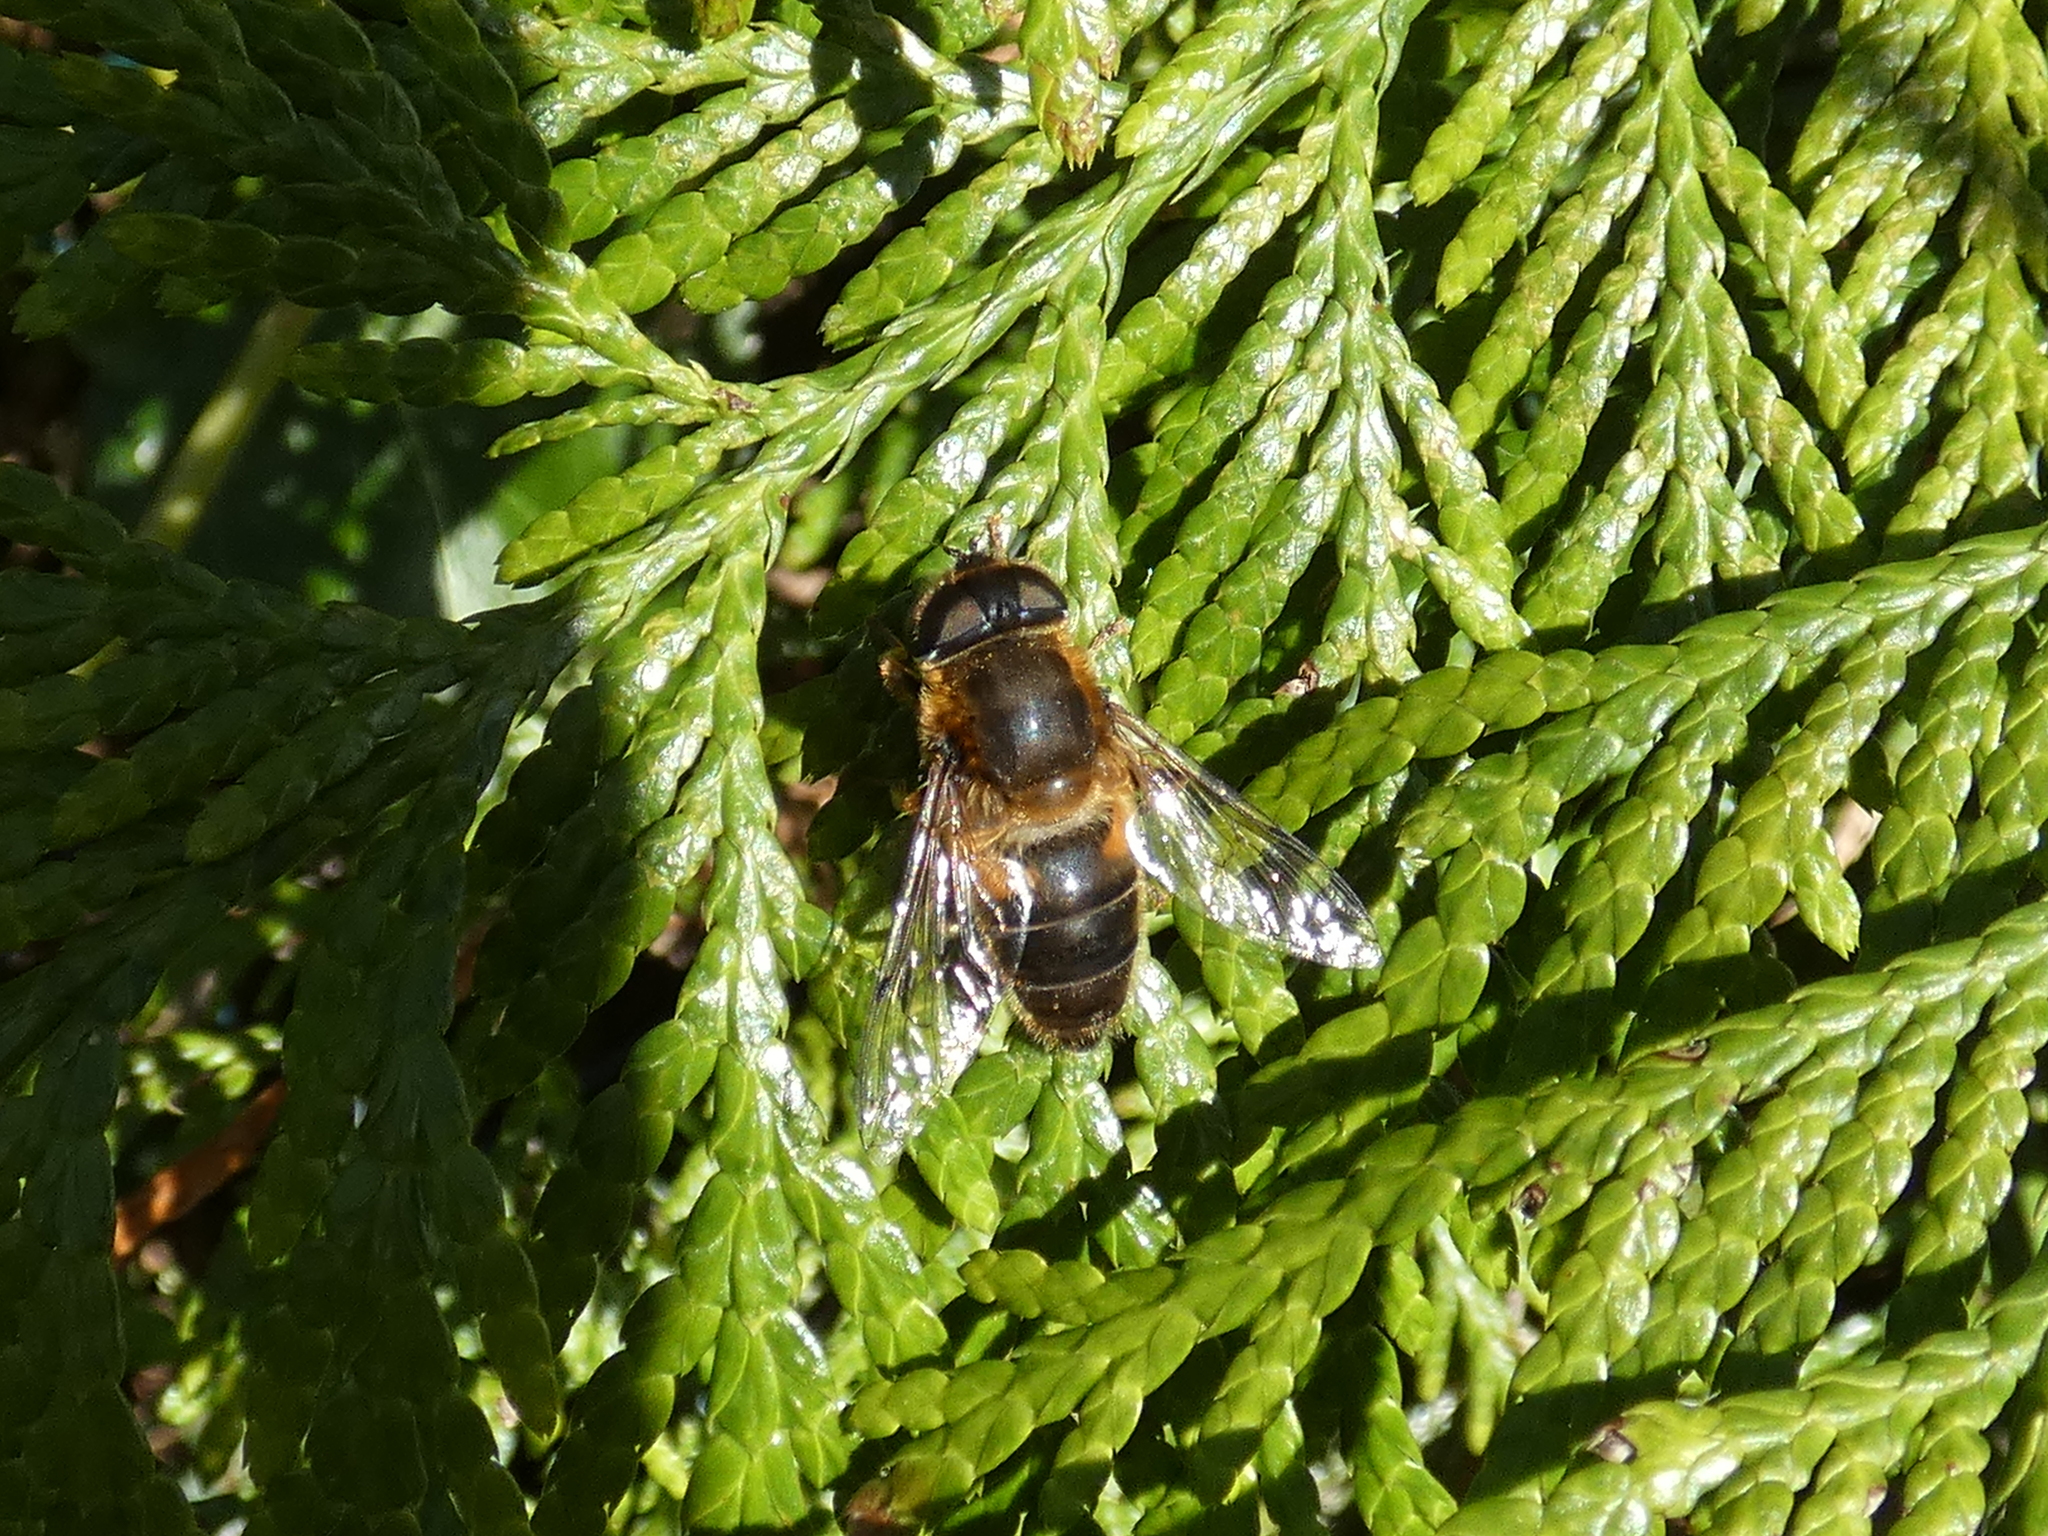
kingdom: Animalia
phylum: Arthropoda
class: Insecta
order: Diptera
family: Syrphidae
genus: Eristalis
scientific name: Eristalis pertinax
